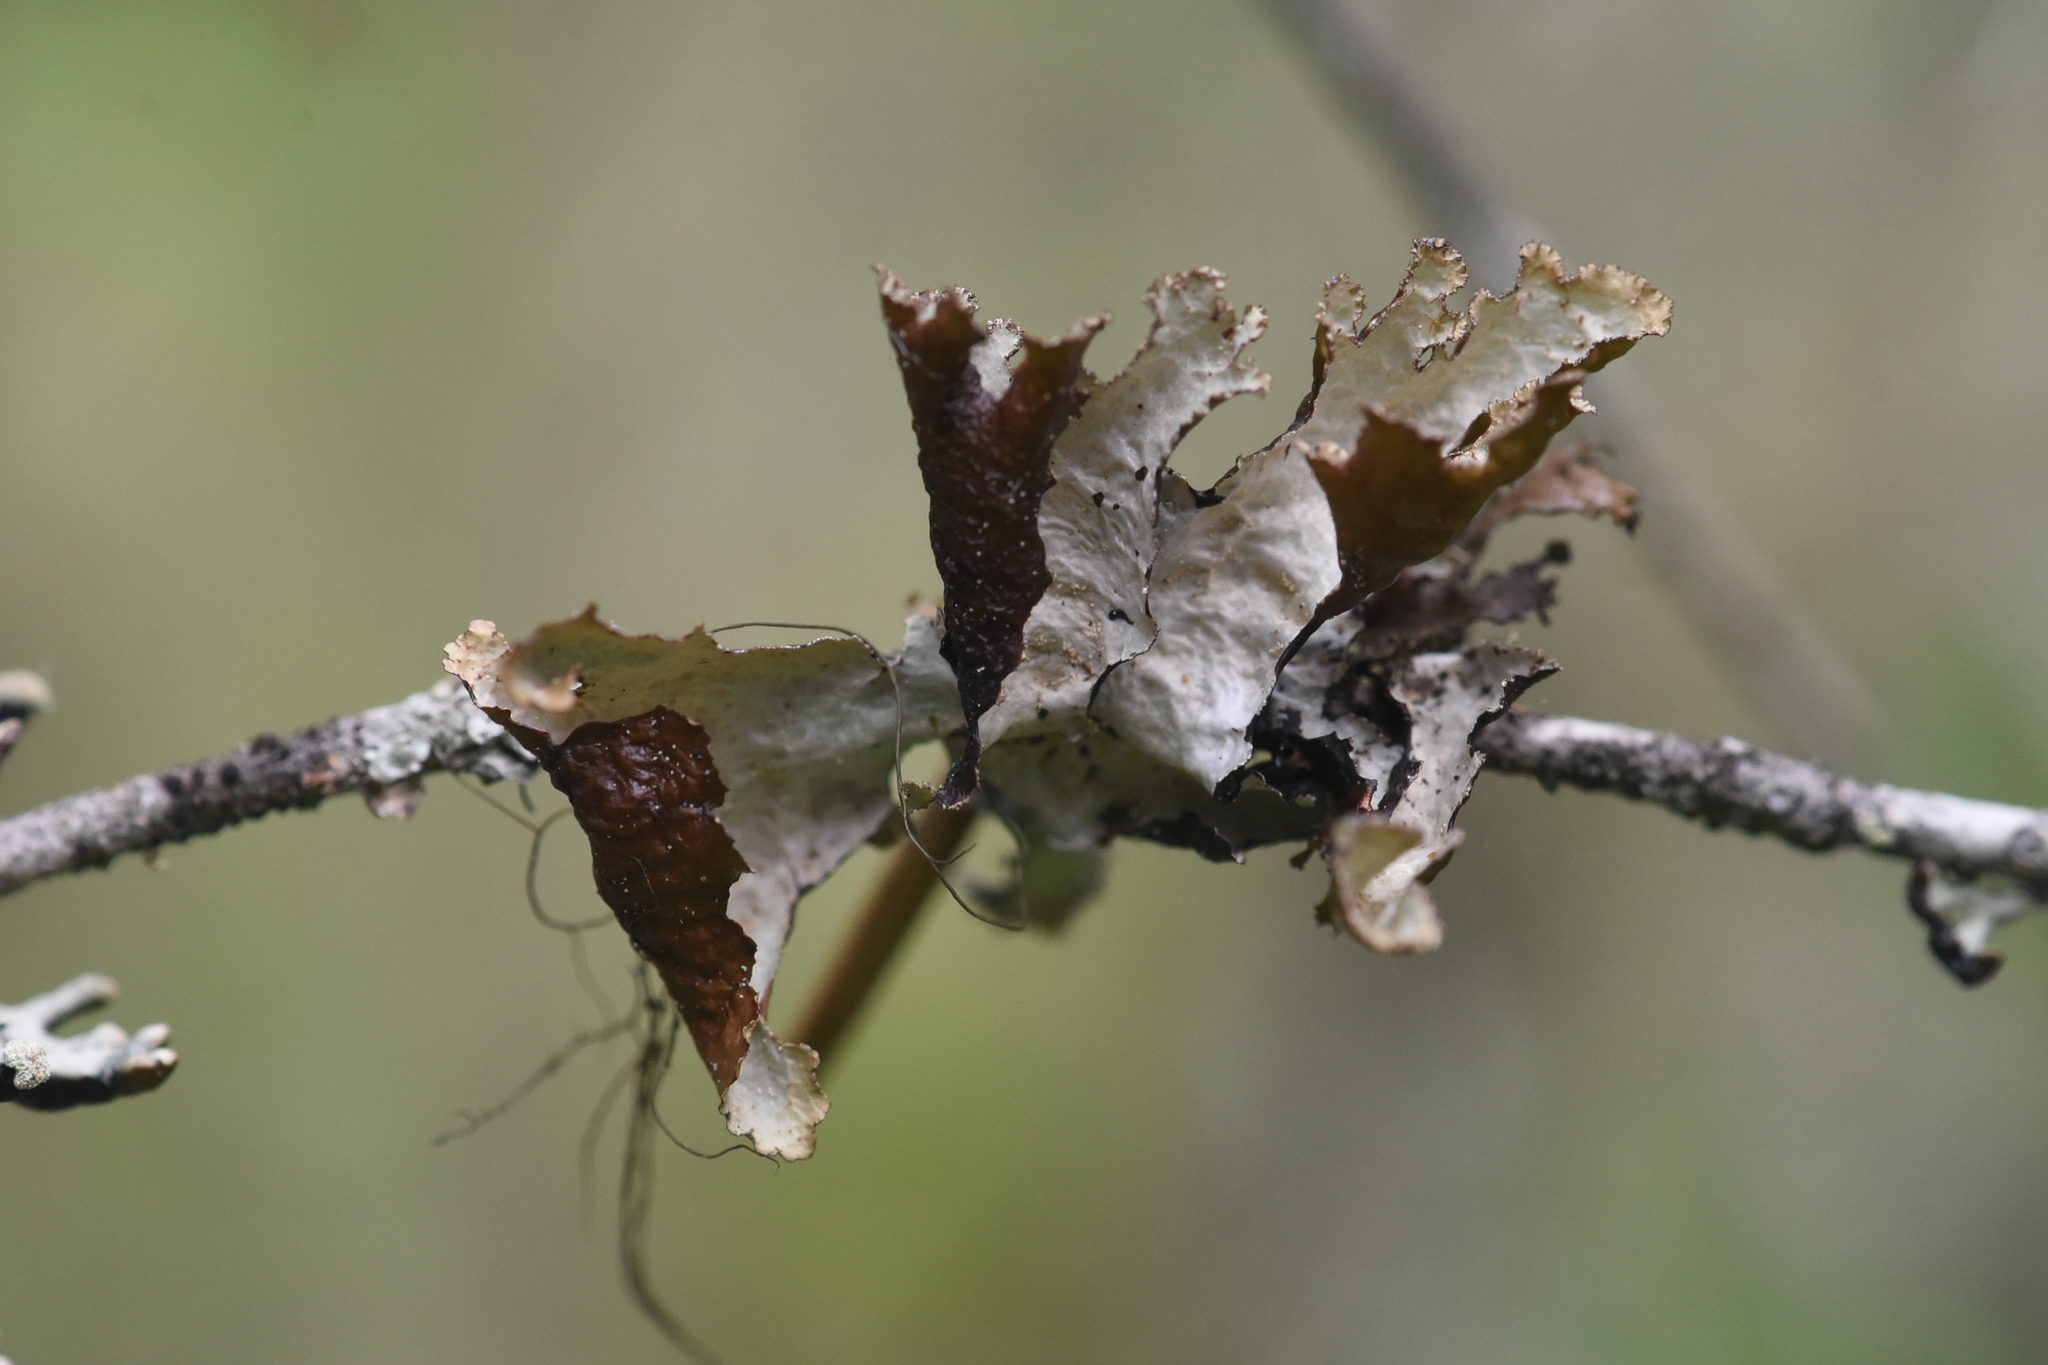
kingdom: Fungi
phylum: Ascomycota
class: Lecanoromycetes
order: Lecanorales
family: Parmeliaceae
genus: Platismatia
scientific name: Platismatia glauca
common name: Varied rag lichen
